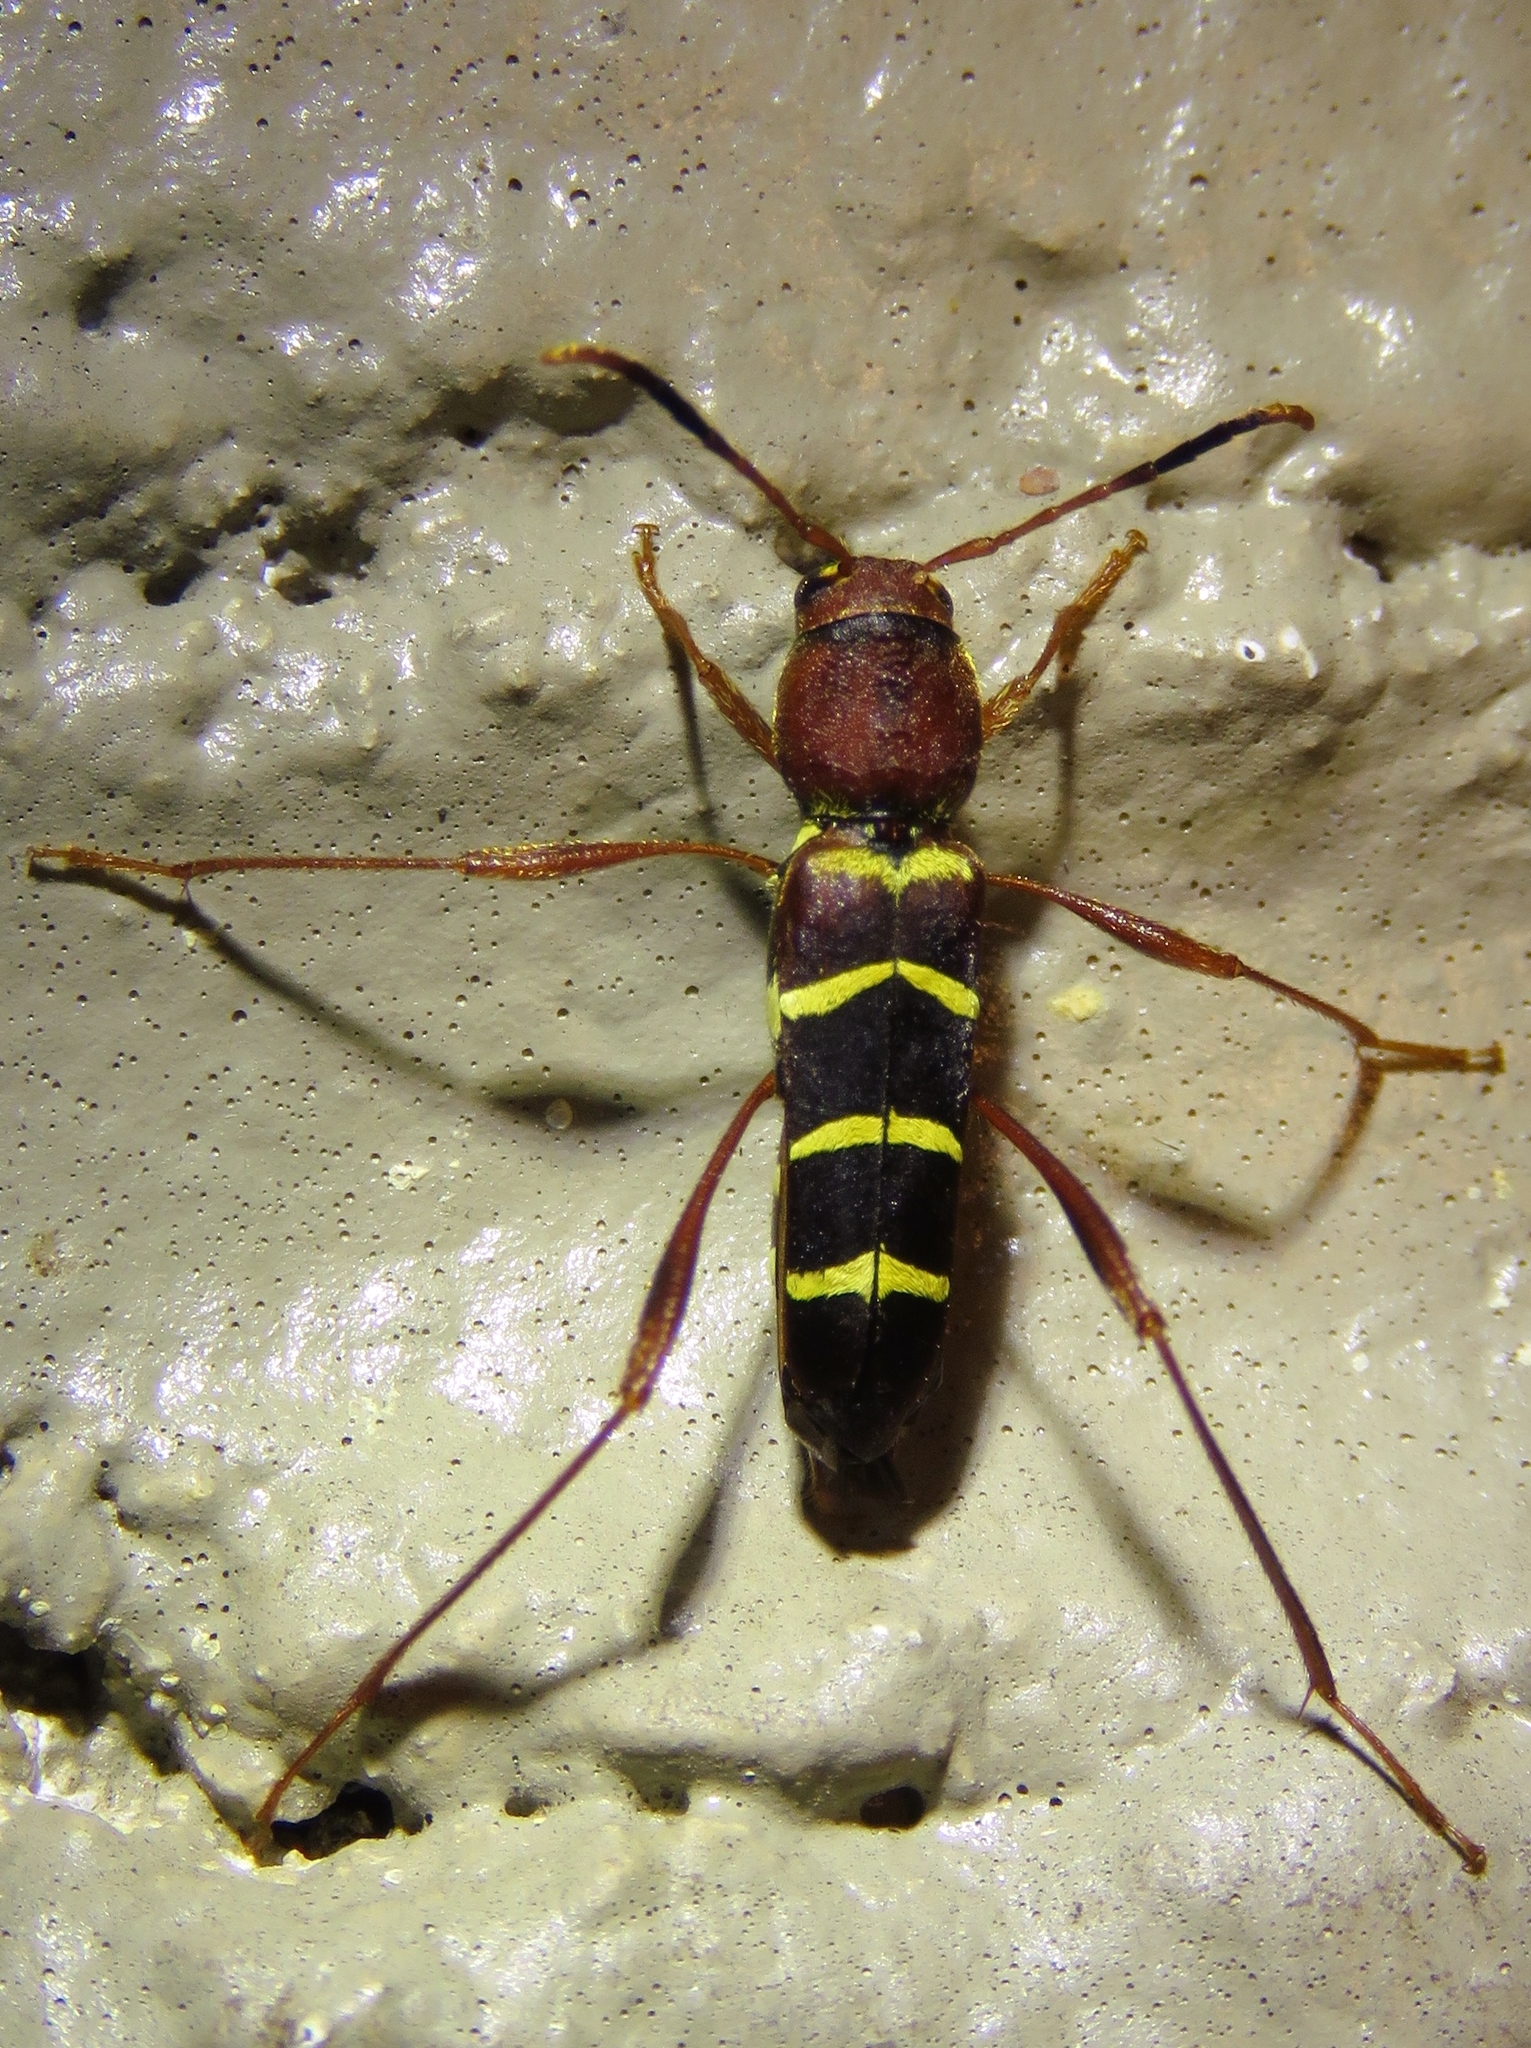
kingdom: Animalia
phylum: Arthropoda
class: Insecta
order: Coleoptera
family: Cerambycidae
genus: Neoclytus
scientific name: Neoclytus acuminatus
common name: Read-headed ash borer
